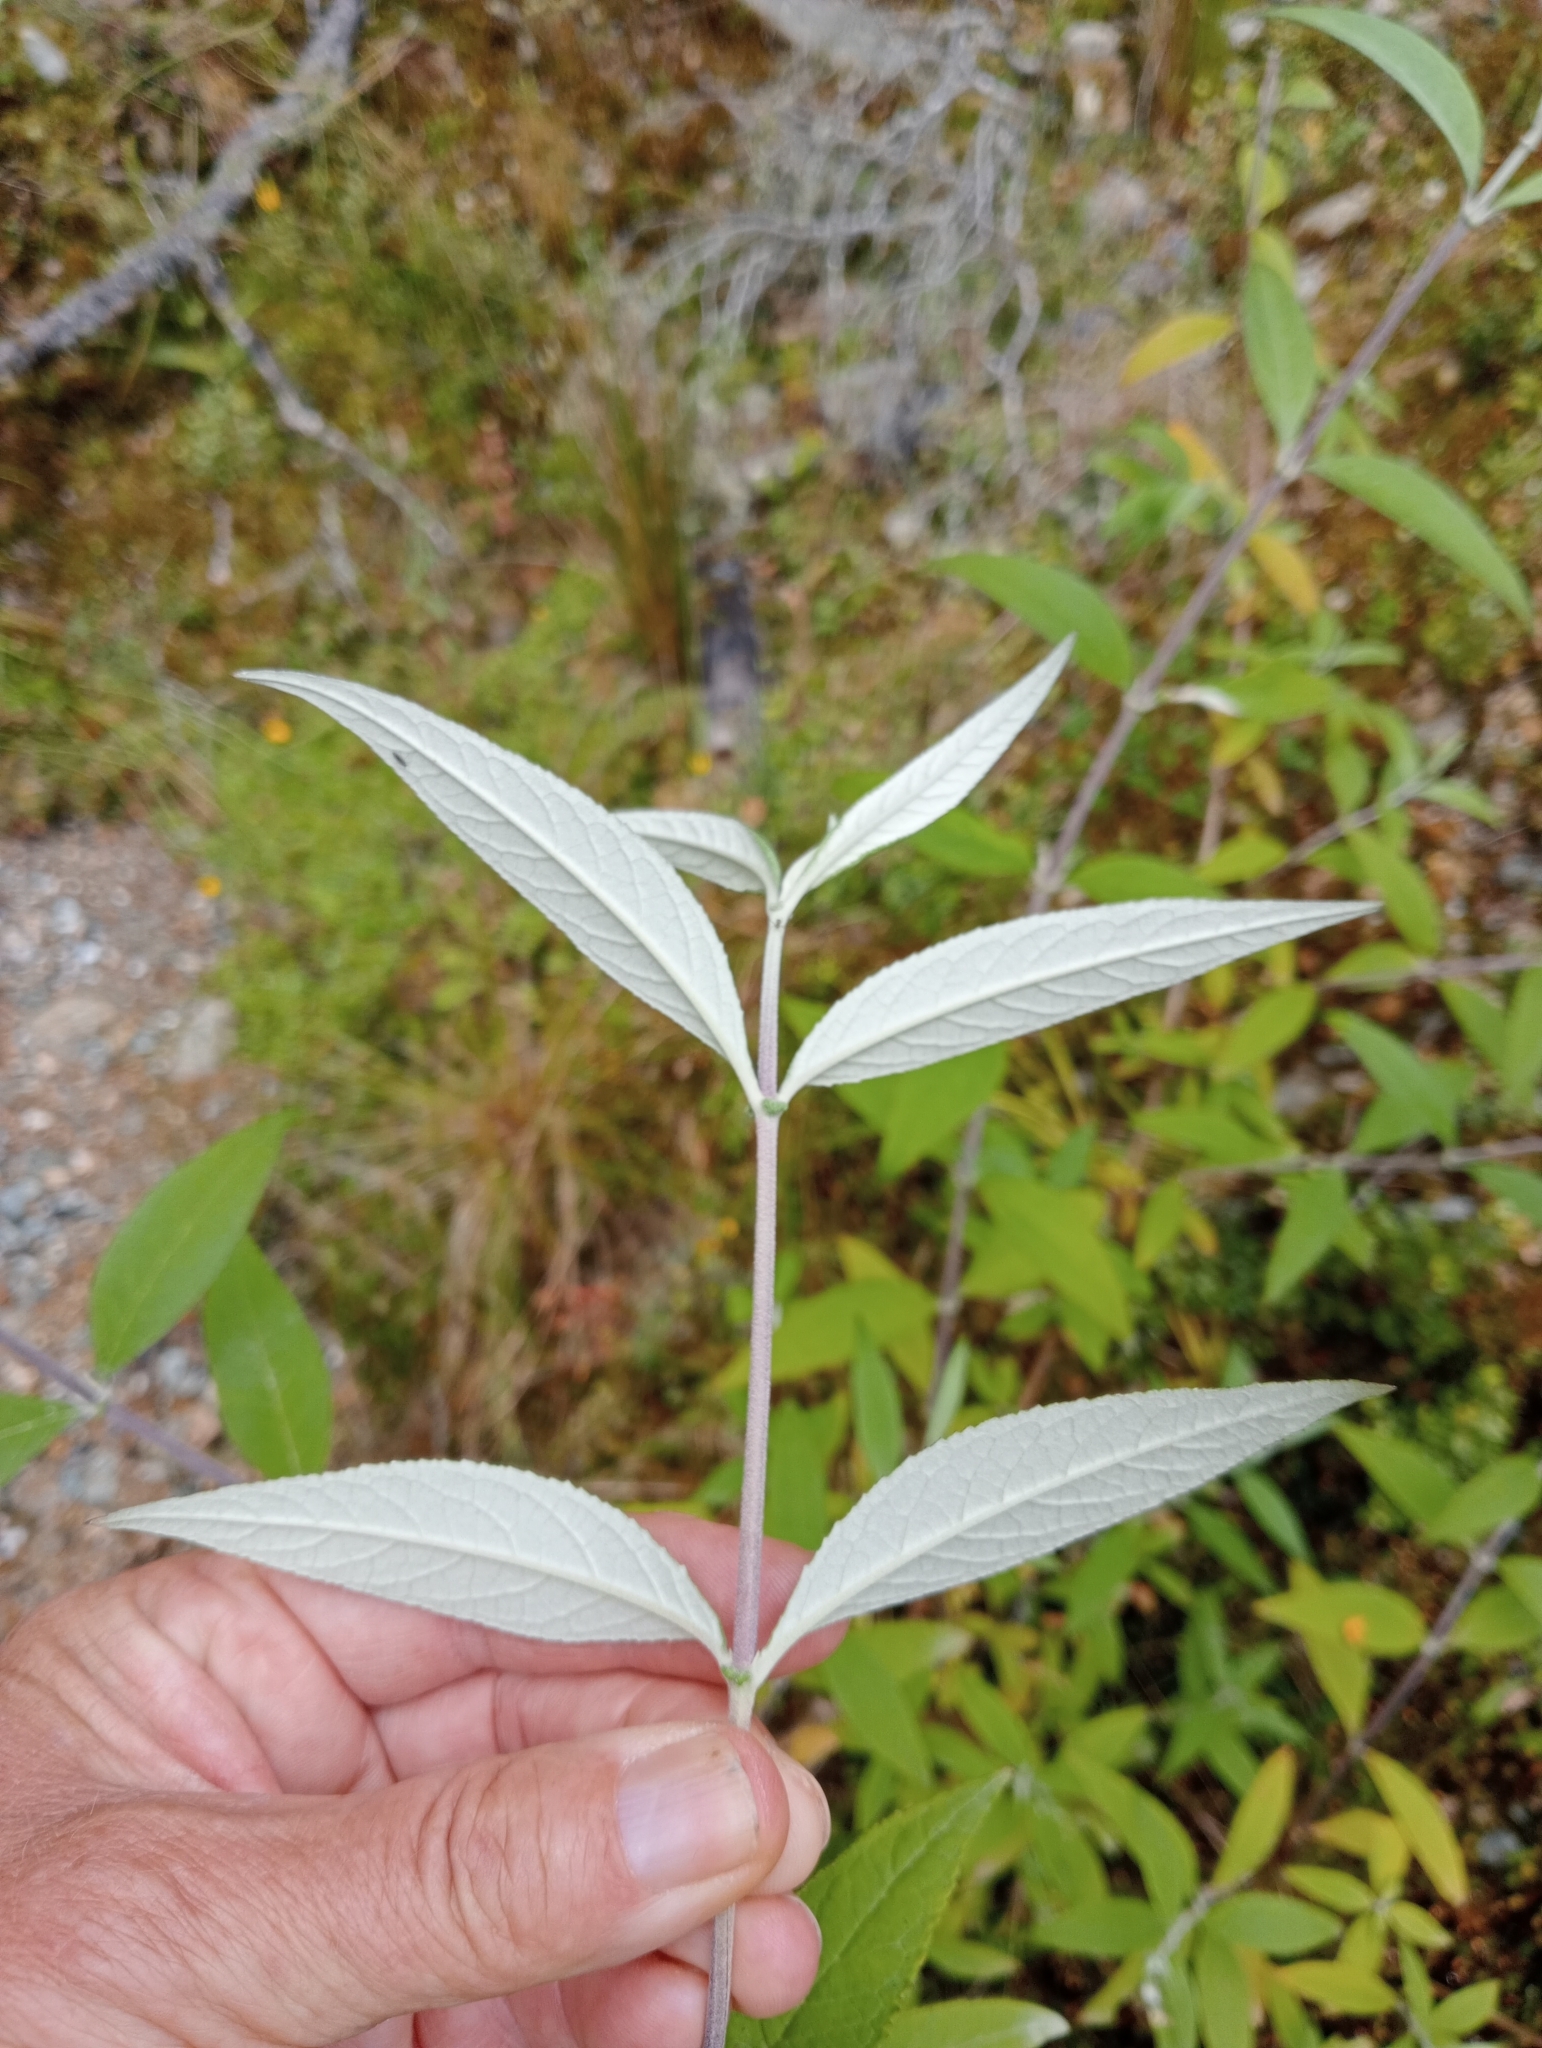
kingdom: Plantae
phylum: Tracheophyta
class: Magnoliopsida
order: Lamiales
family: Scrophulariaceae
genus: Buddleja
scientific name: Buddleja davidii
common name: Butterfly-bush
